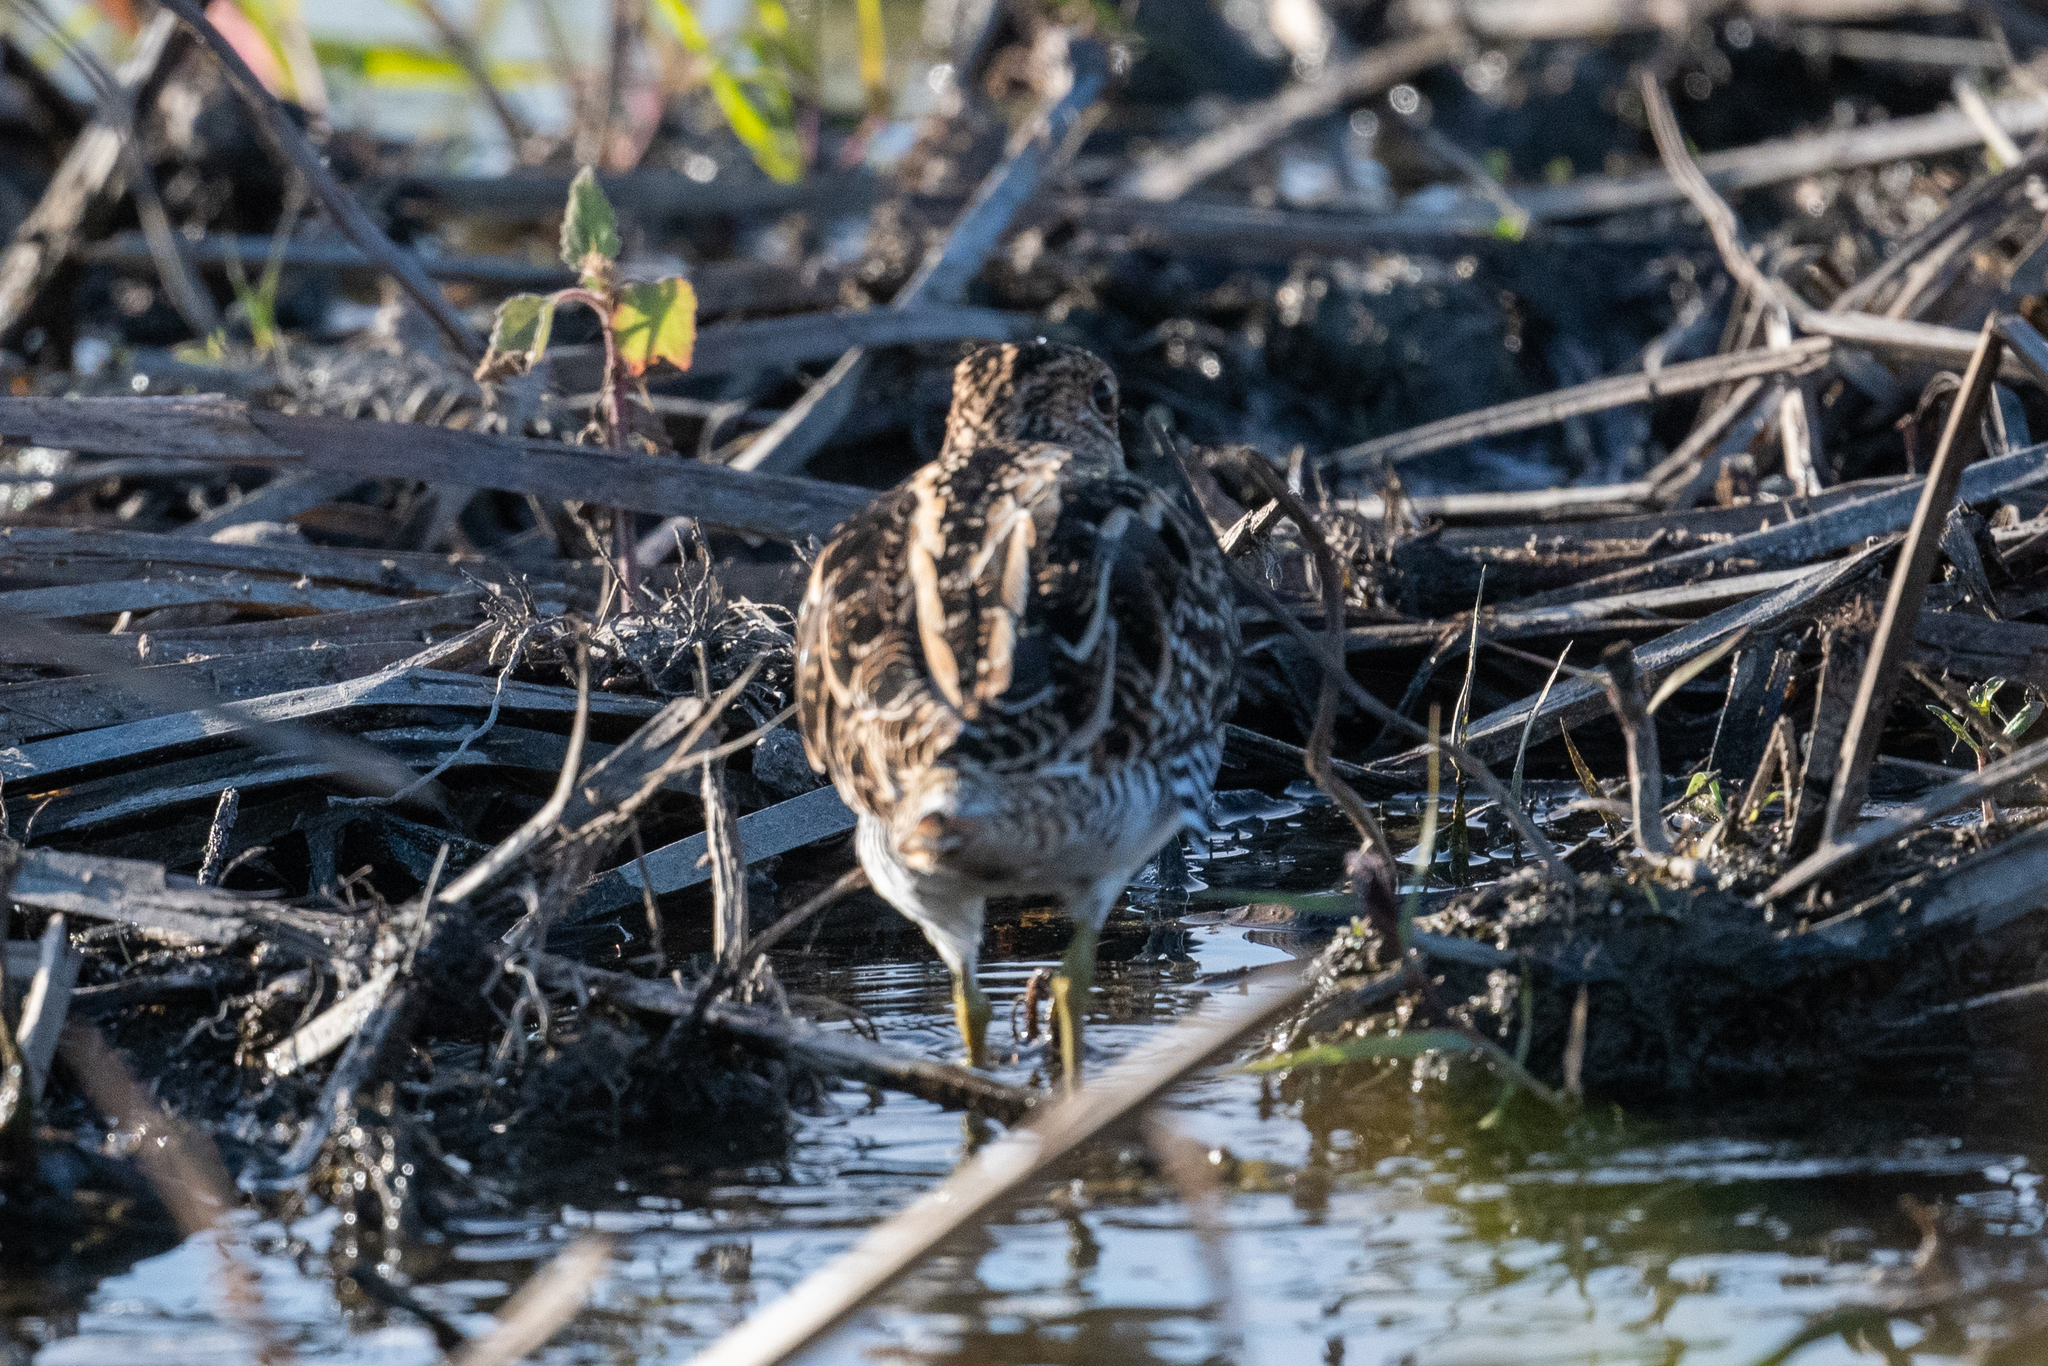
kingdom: Animalia
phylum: Chordata
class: Aves
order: Charadriiformes
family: Scolopacidae
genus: Gallinago
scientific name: Gallinago delicata
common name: Wilson's snipe
